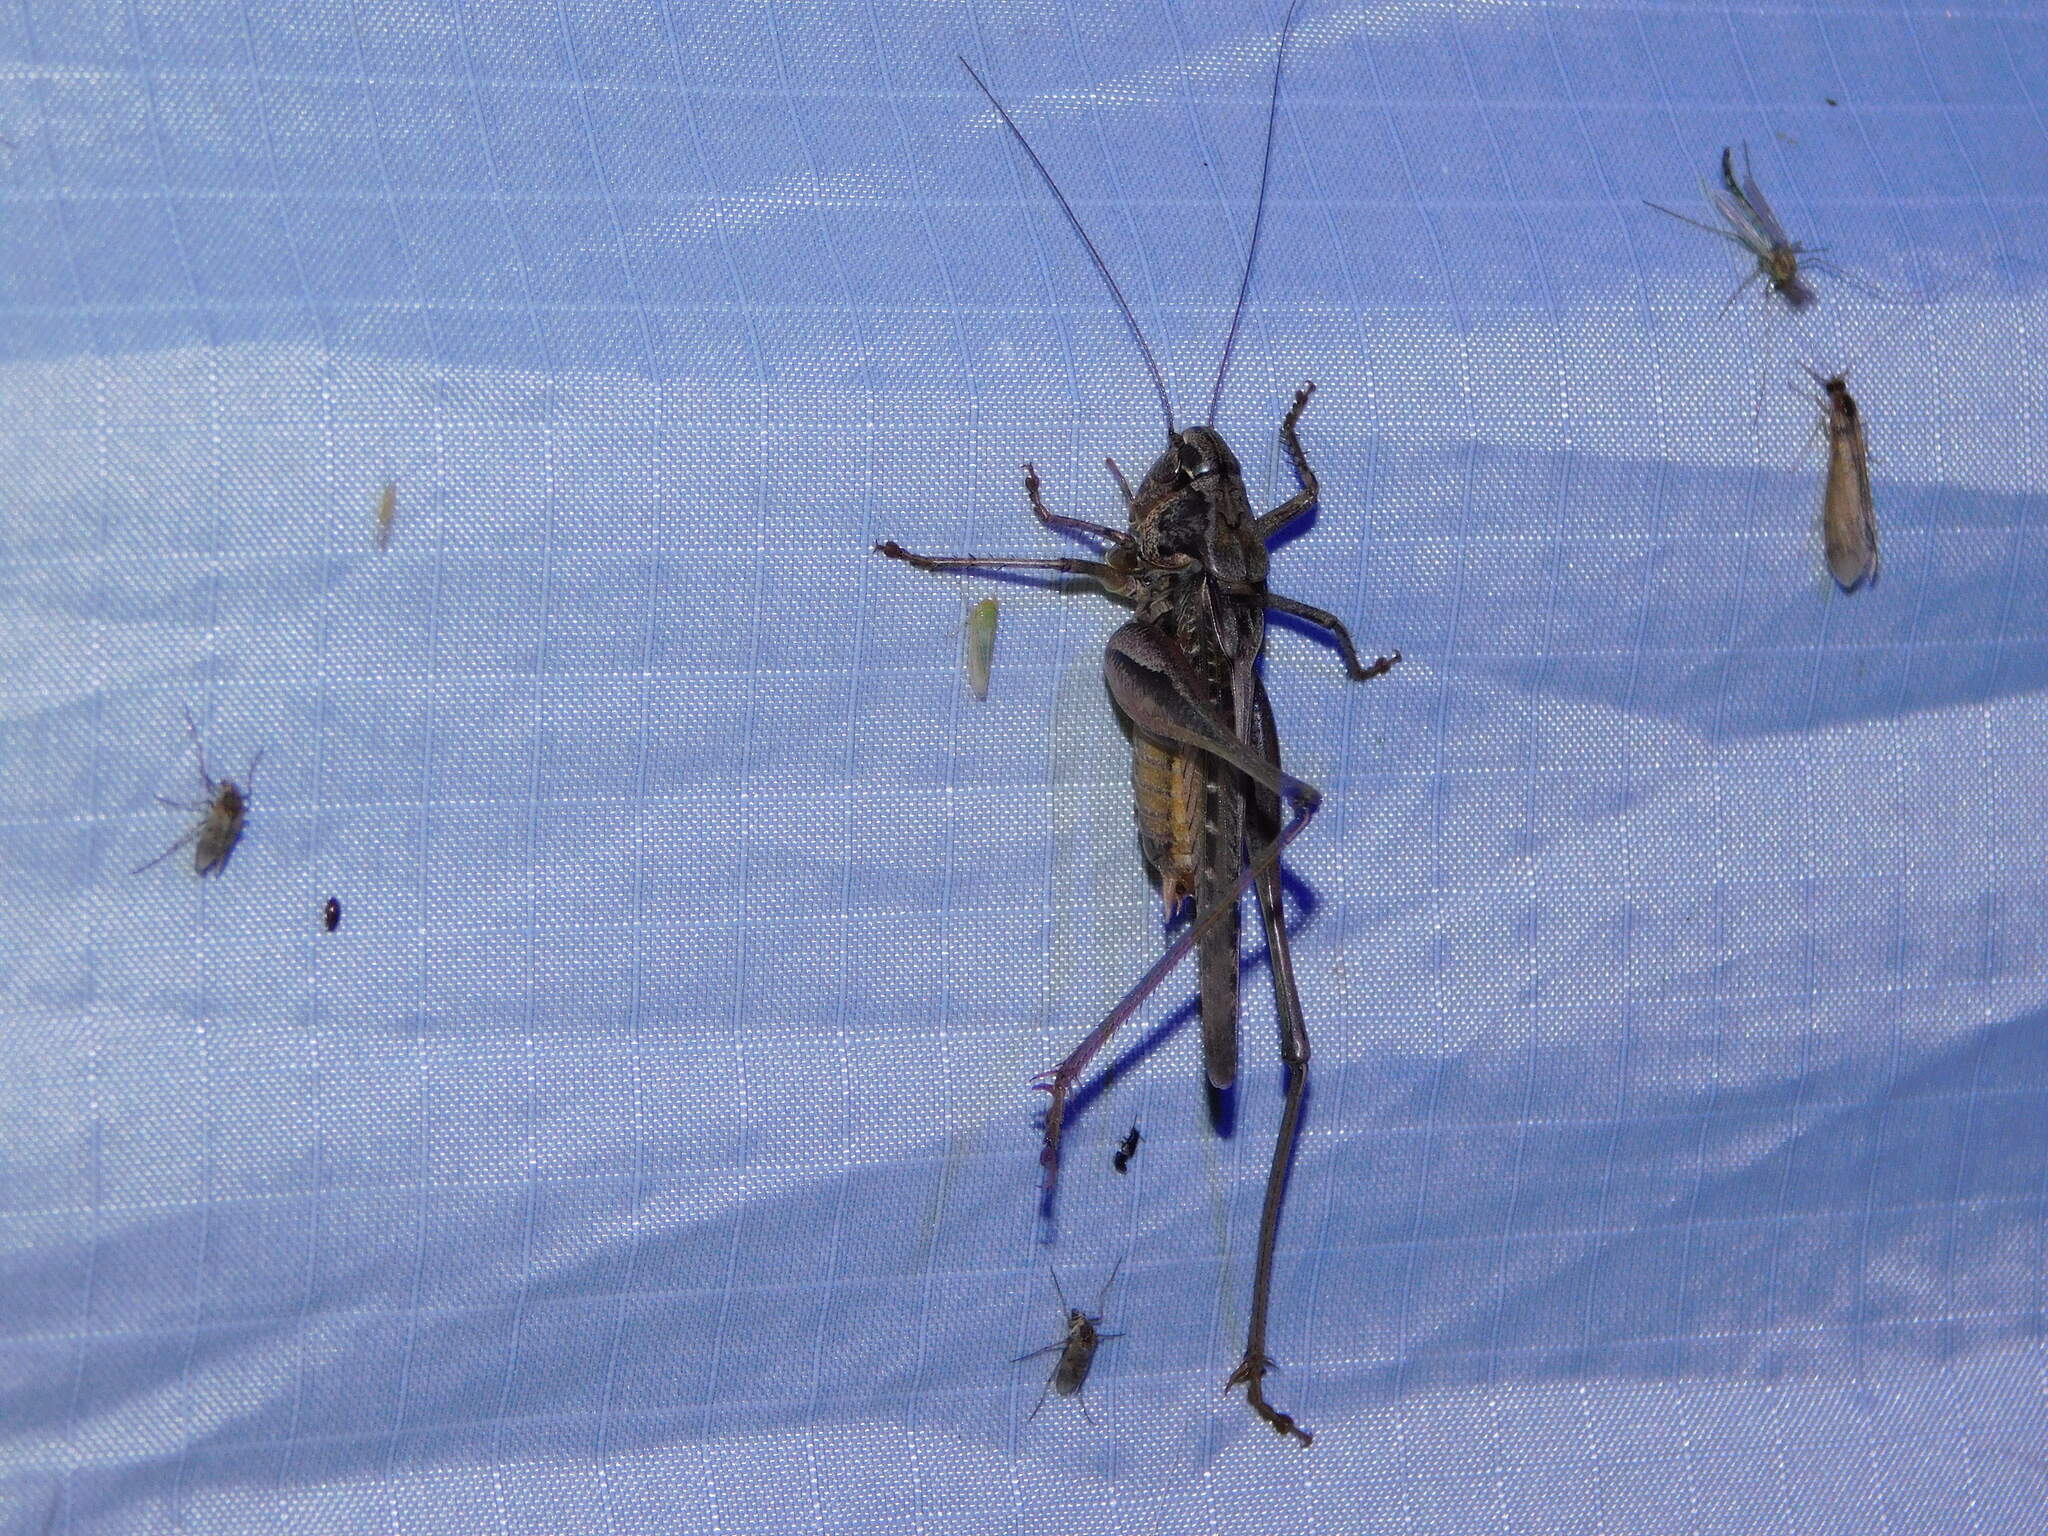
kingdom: Animalia
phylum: Arthropoda
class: Insecta
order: Orthoptera
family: Tettigoniidae
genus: Platycleis
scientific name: Platycleis albopunctata
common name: Grey bush-cricket
